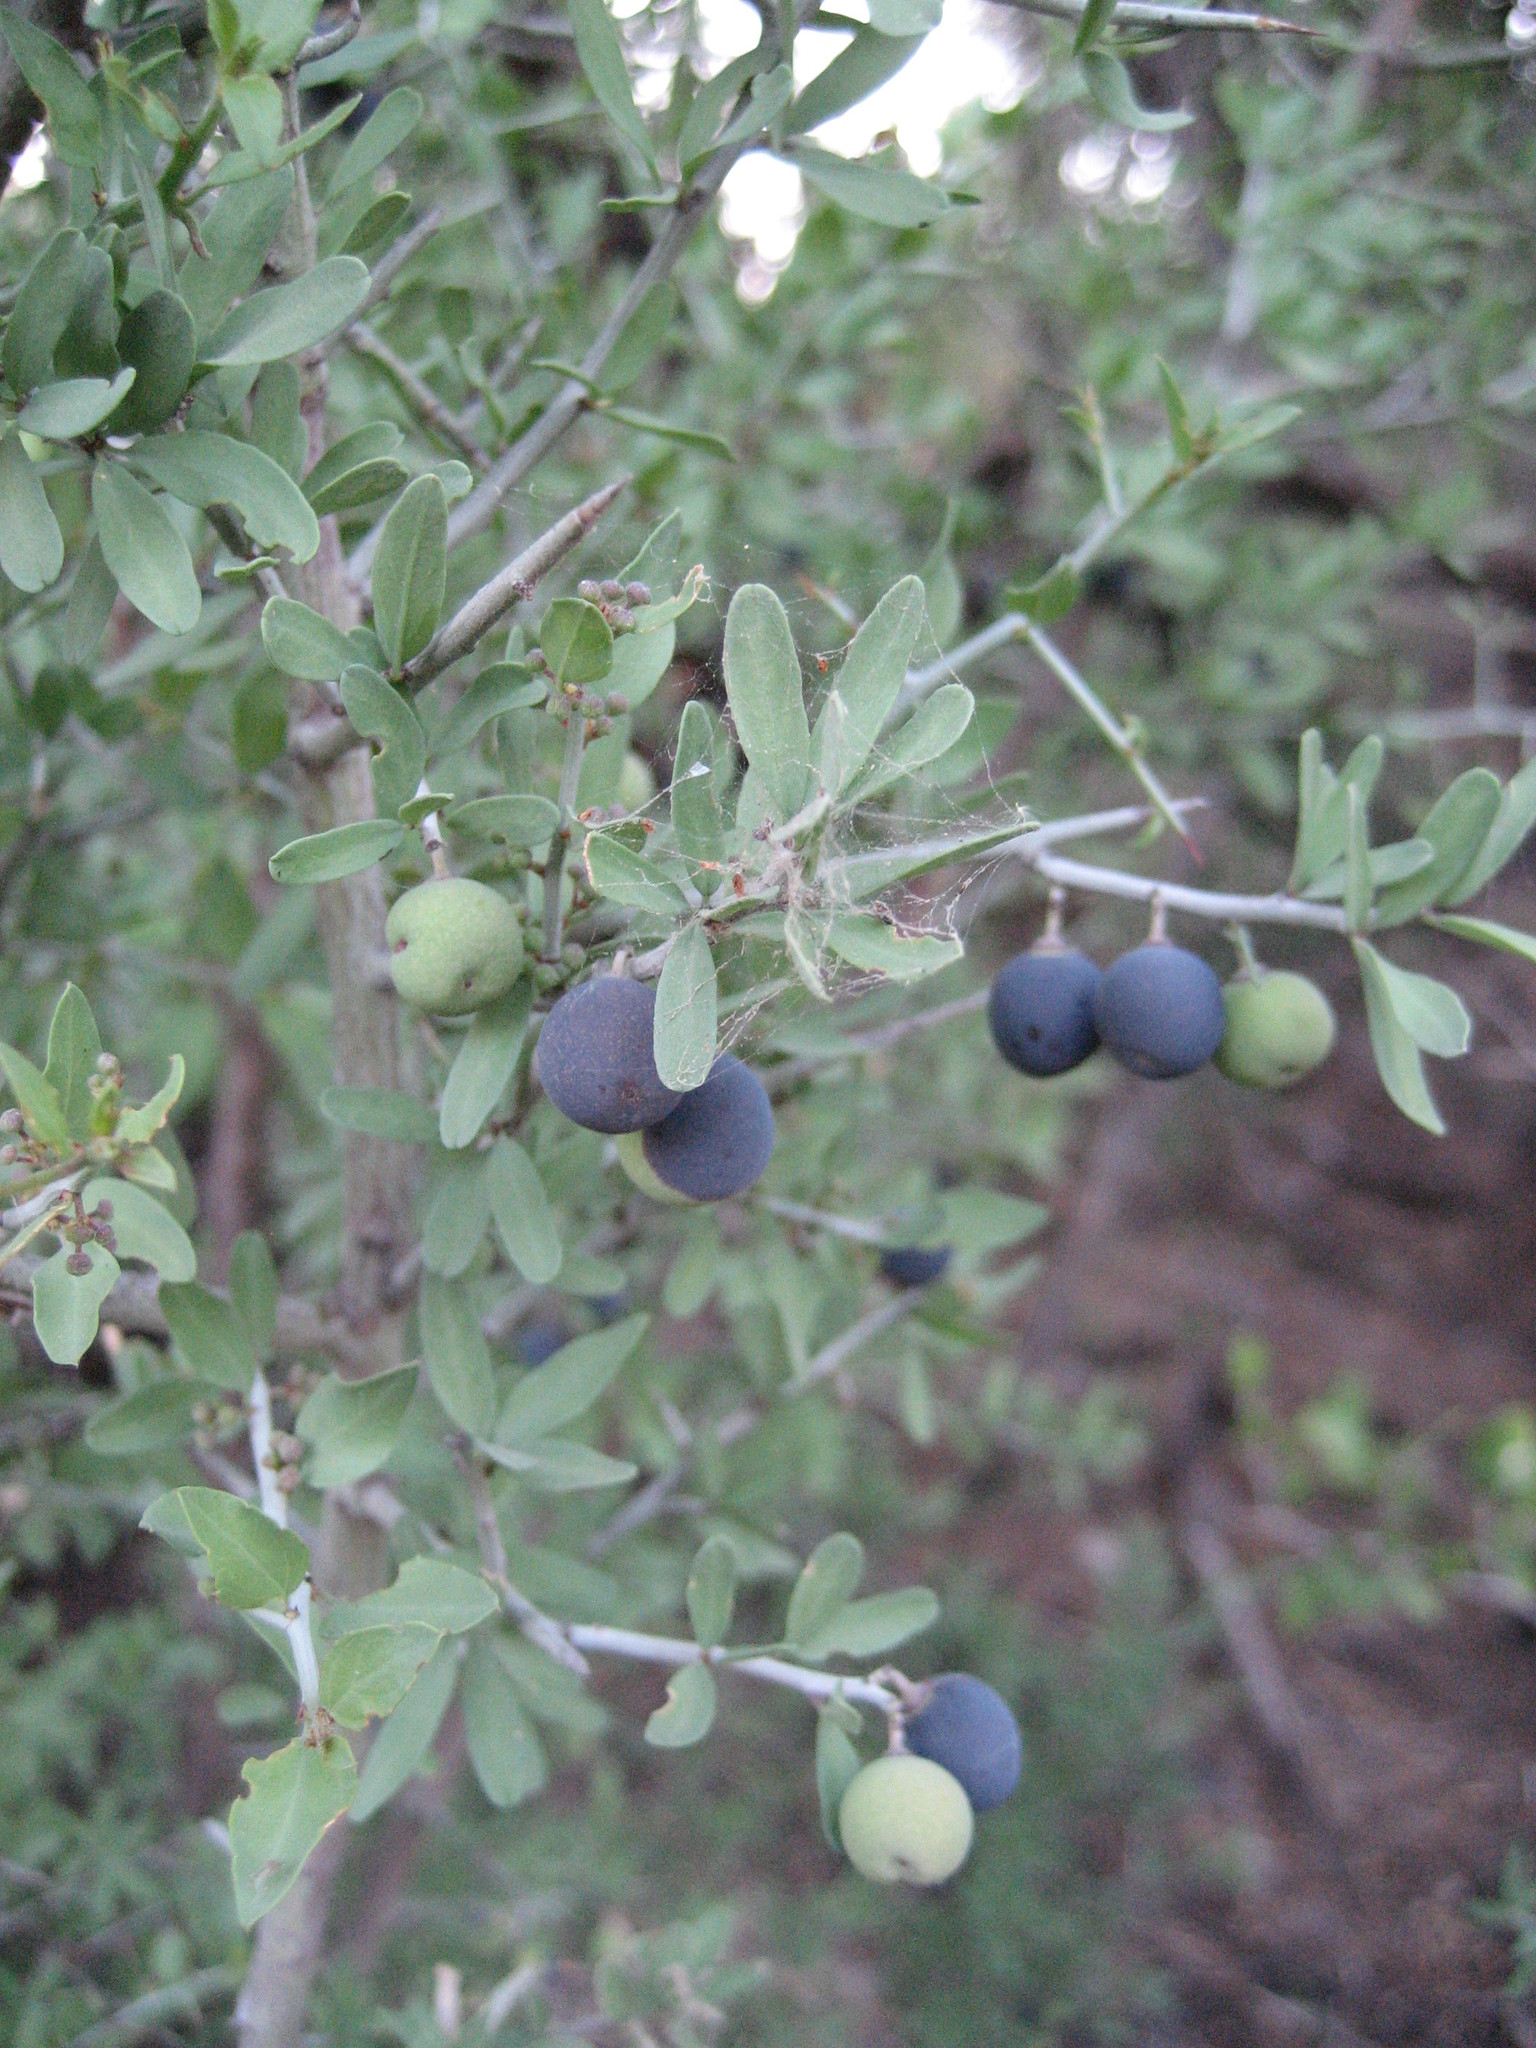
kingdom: Plantae
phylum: Tracheophyta
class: Magnoliopsida
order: Rosales
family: Rhamnaceae
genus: Sarcomphalus
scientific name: Sarcomphalus obtusifolius
